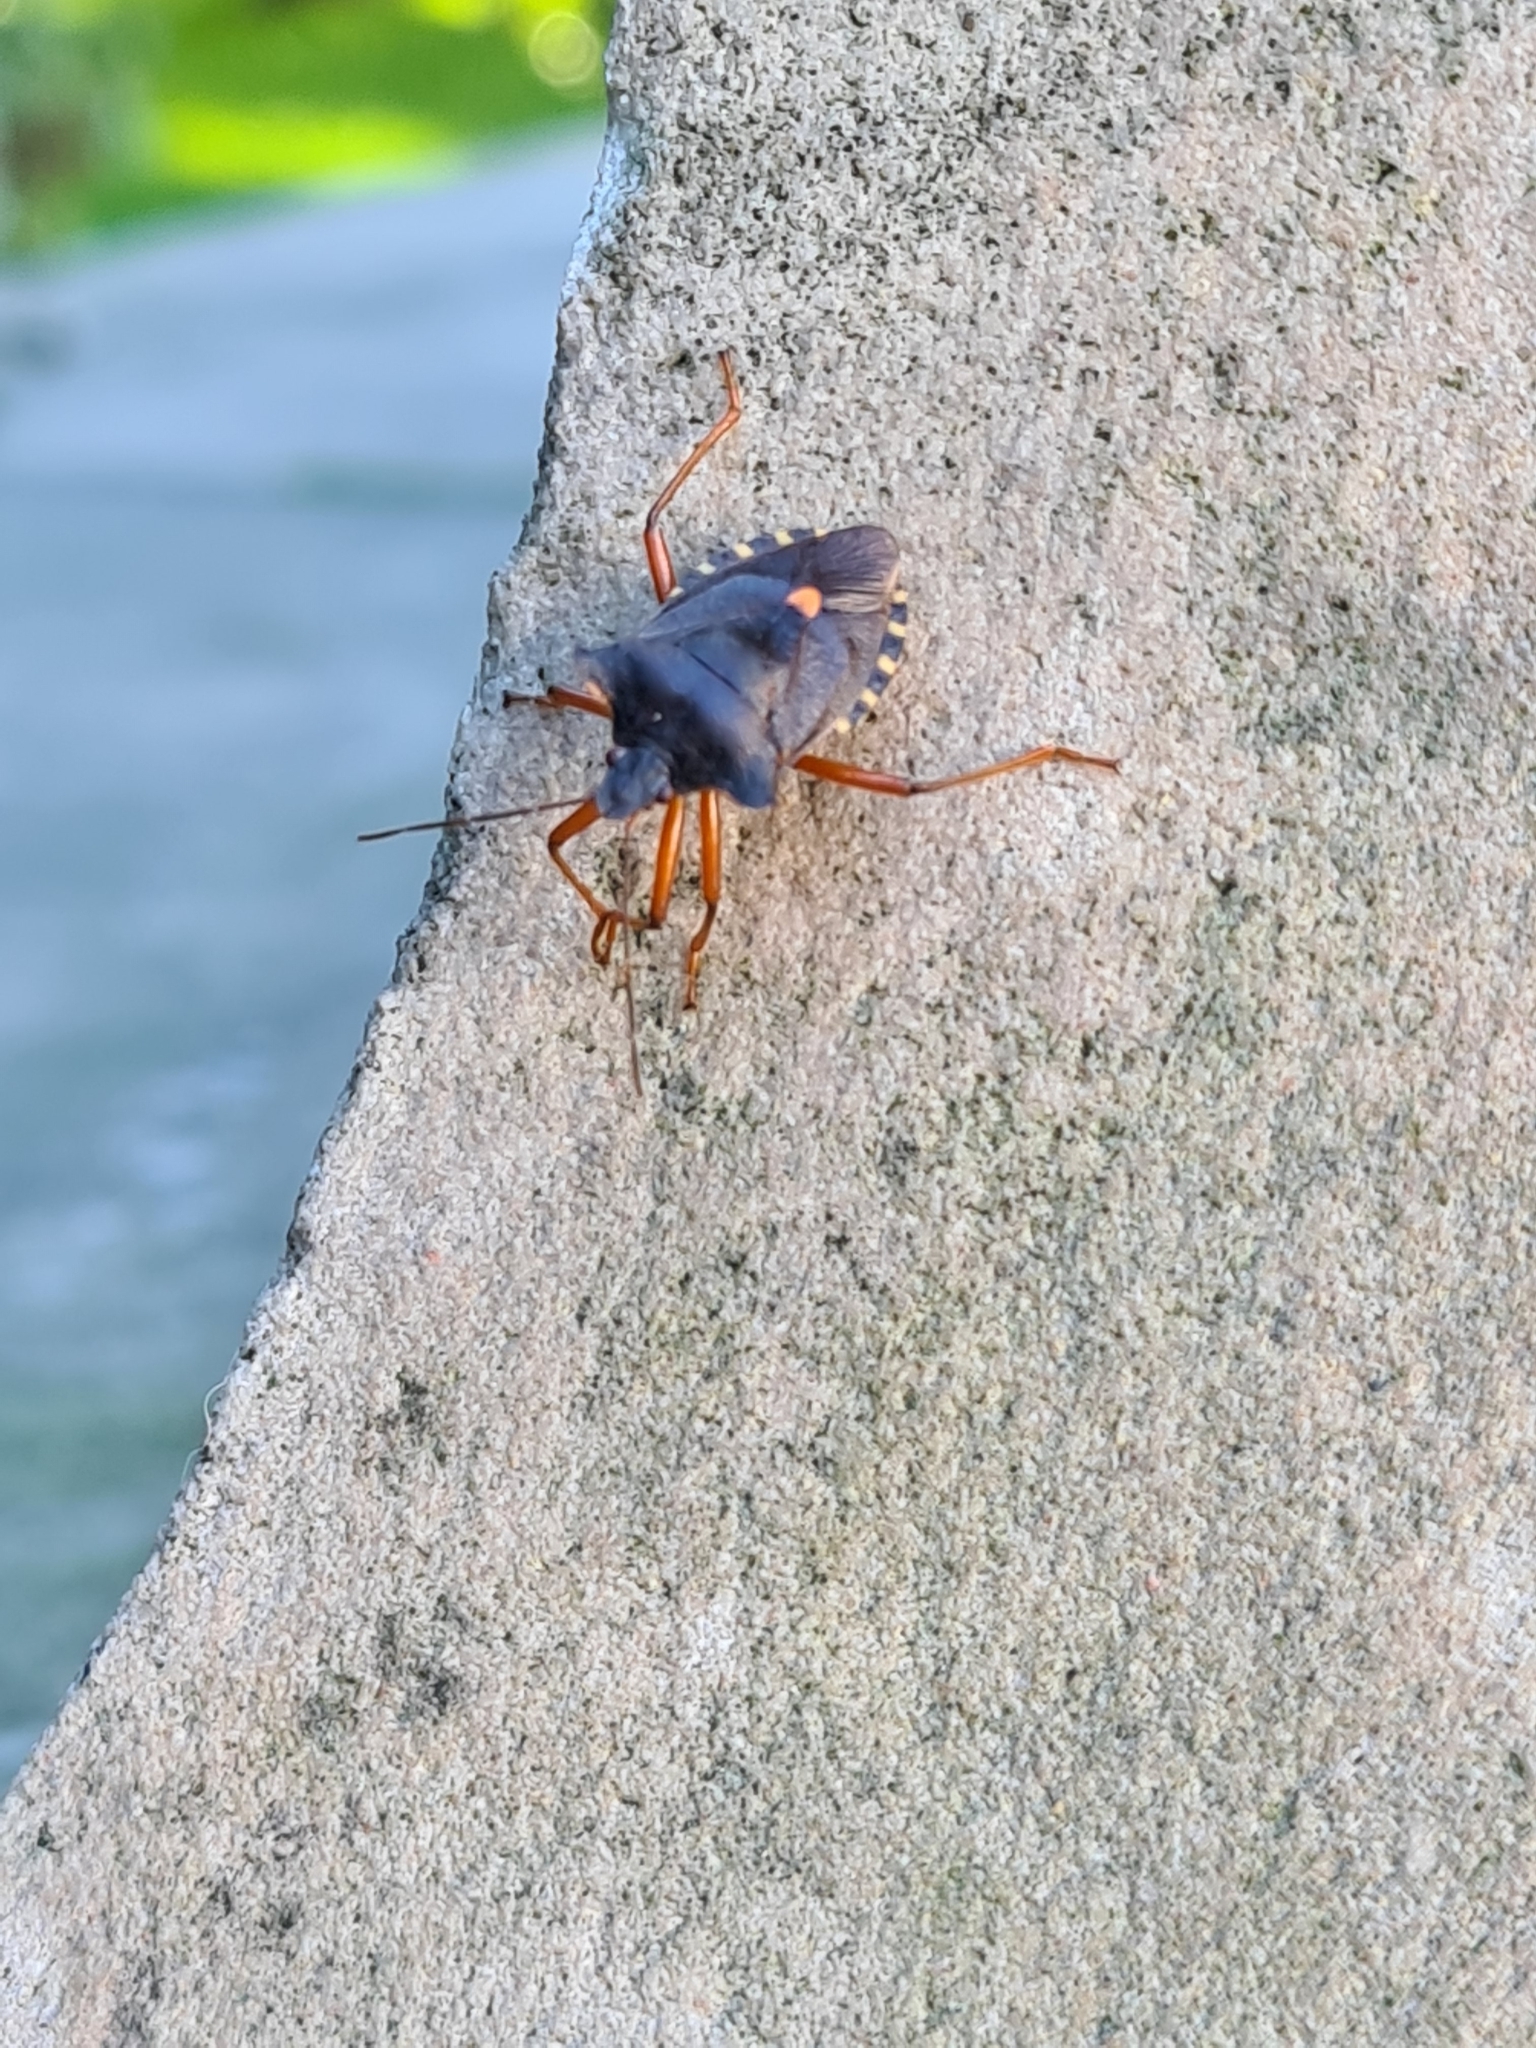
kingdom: Animalia
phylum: Arthropoda
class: Insecta
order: Hemiptera
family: Pentatomidae
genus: Pentatoma
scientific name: Pentatoma rufipes
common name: Forest bug
